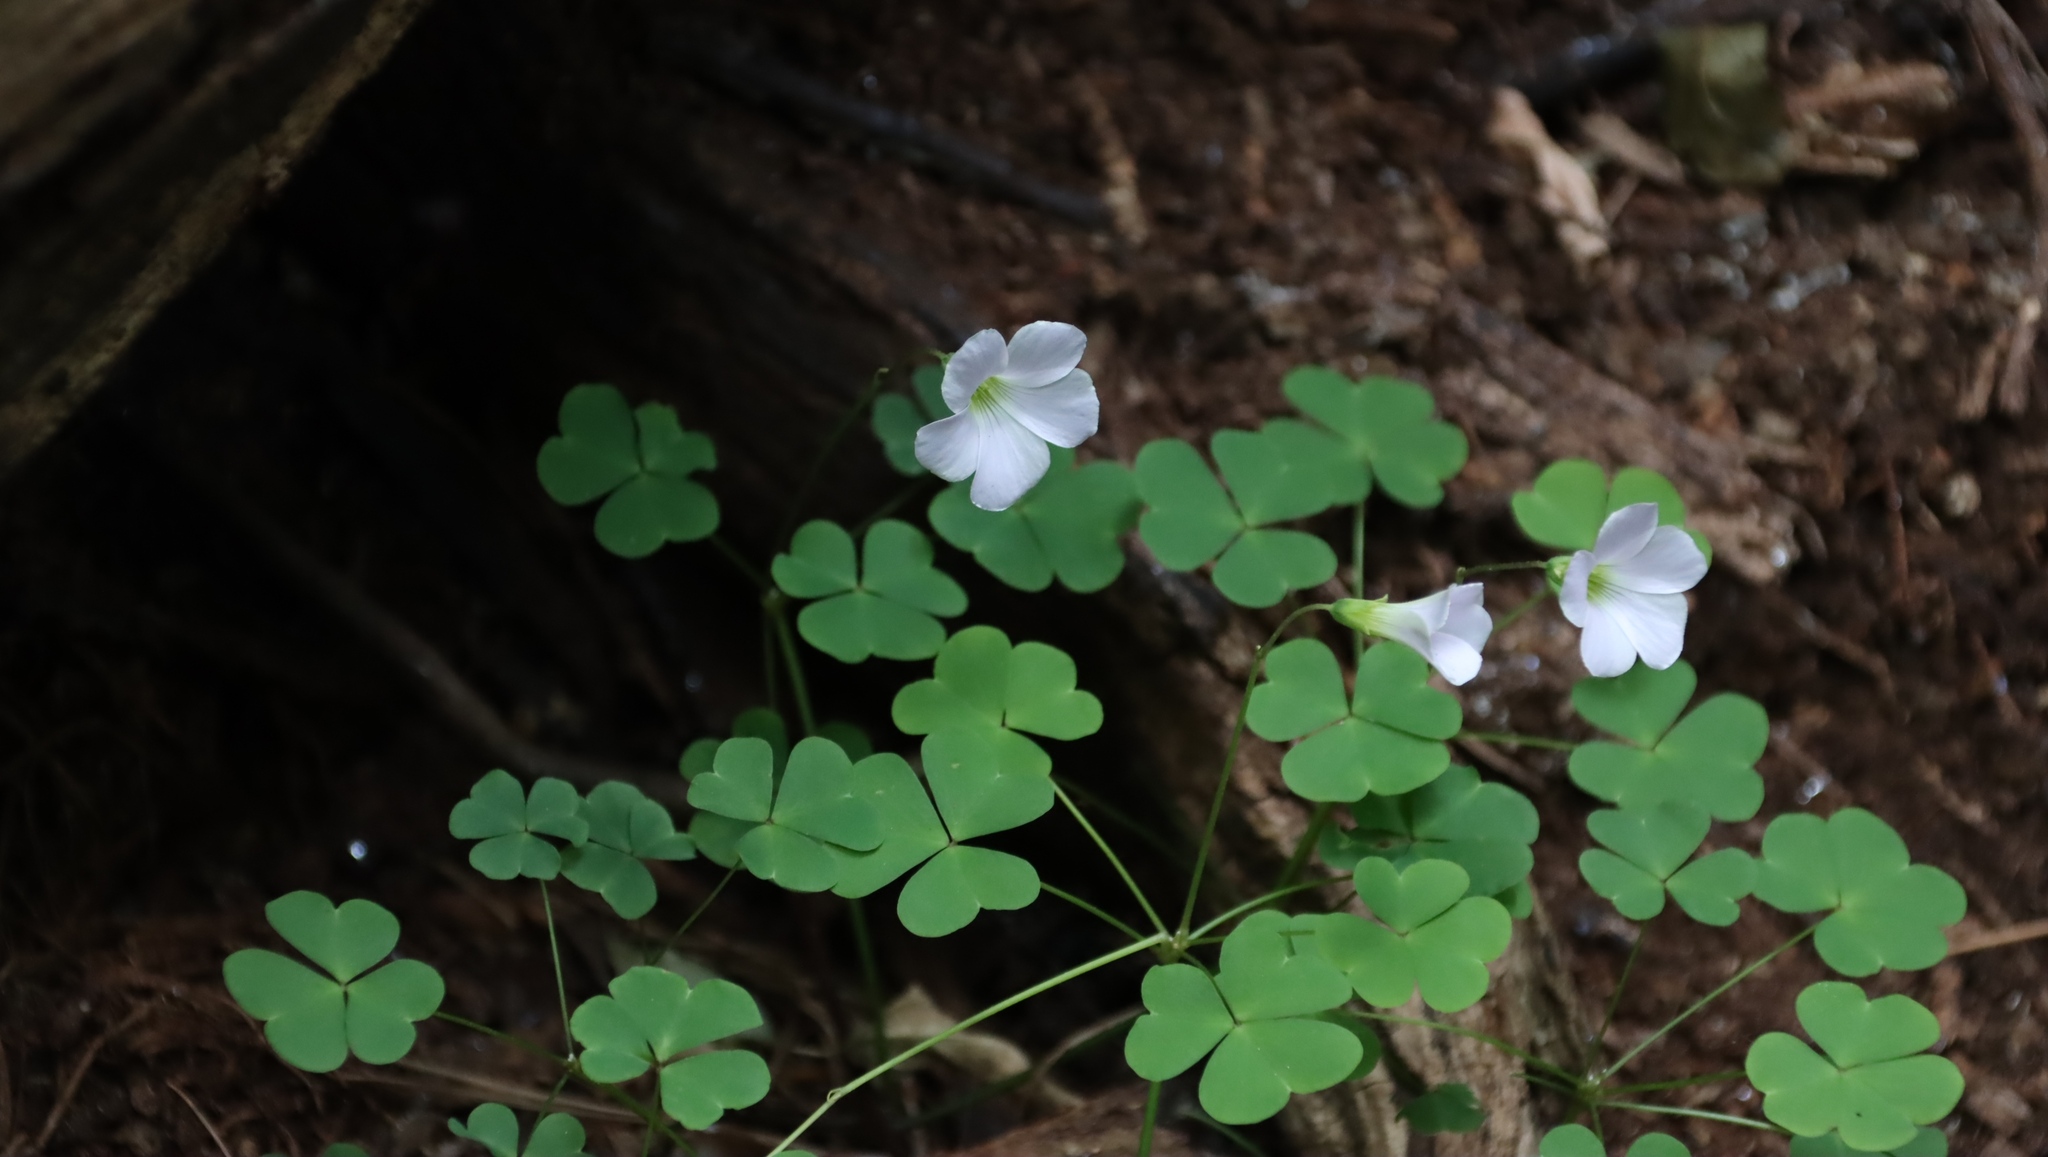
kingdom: Plantae
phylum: Tracheophyta
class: Magnoliopsida
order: Oxalidales
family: Oxalidaceae
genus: Oxalis
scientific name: Oxalis incarnata
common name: Pale pink-sorrel
